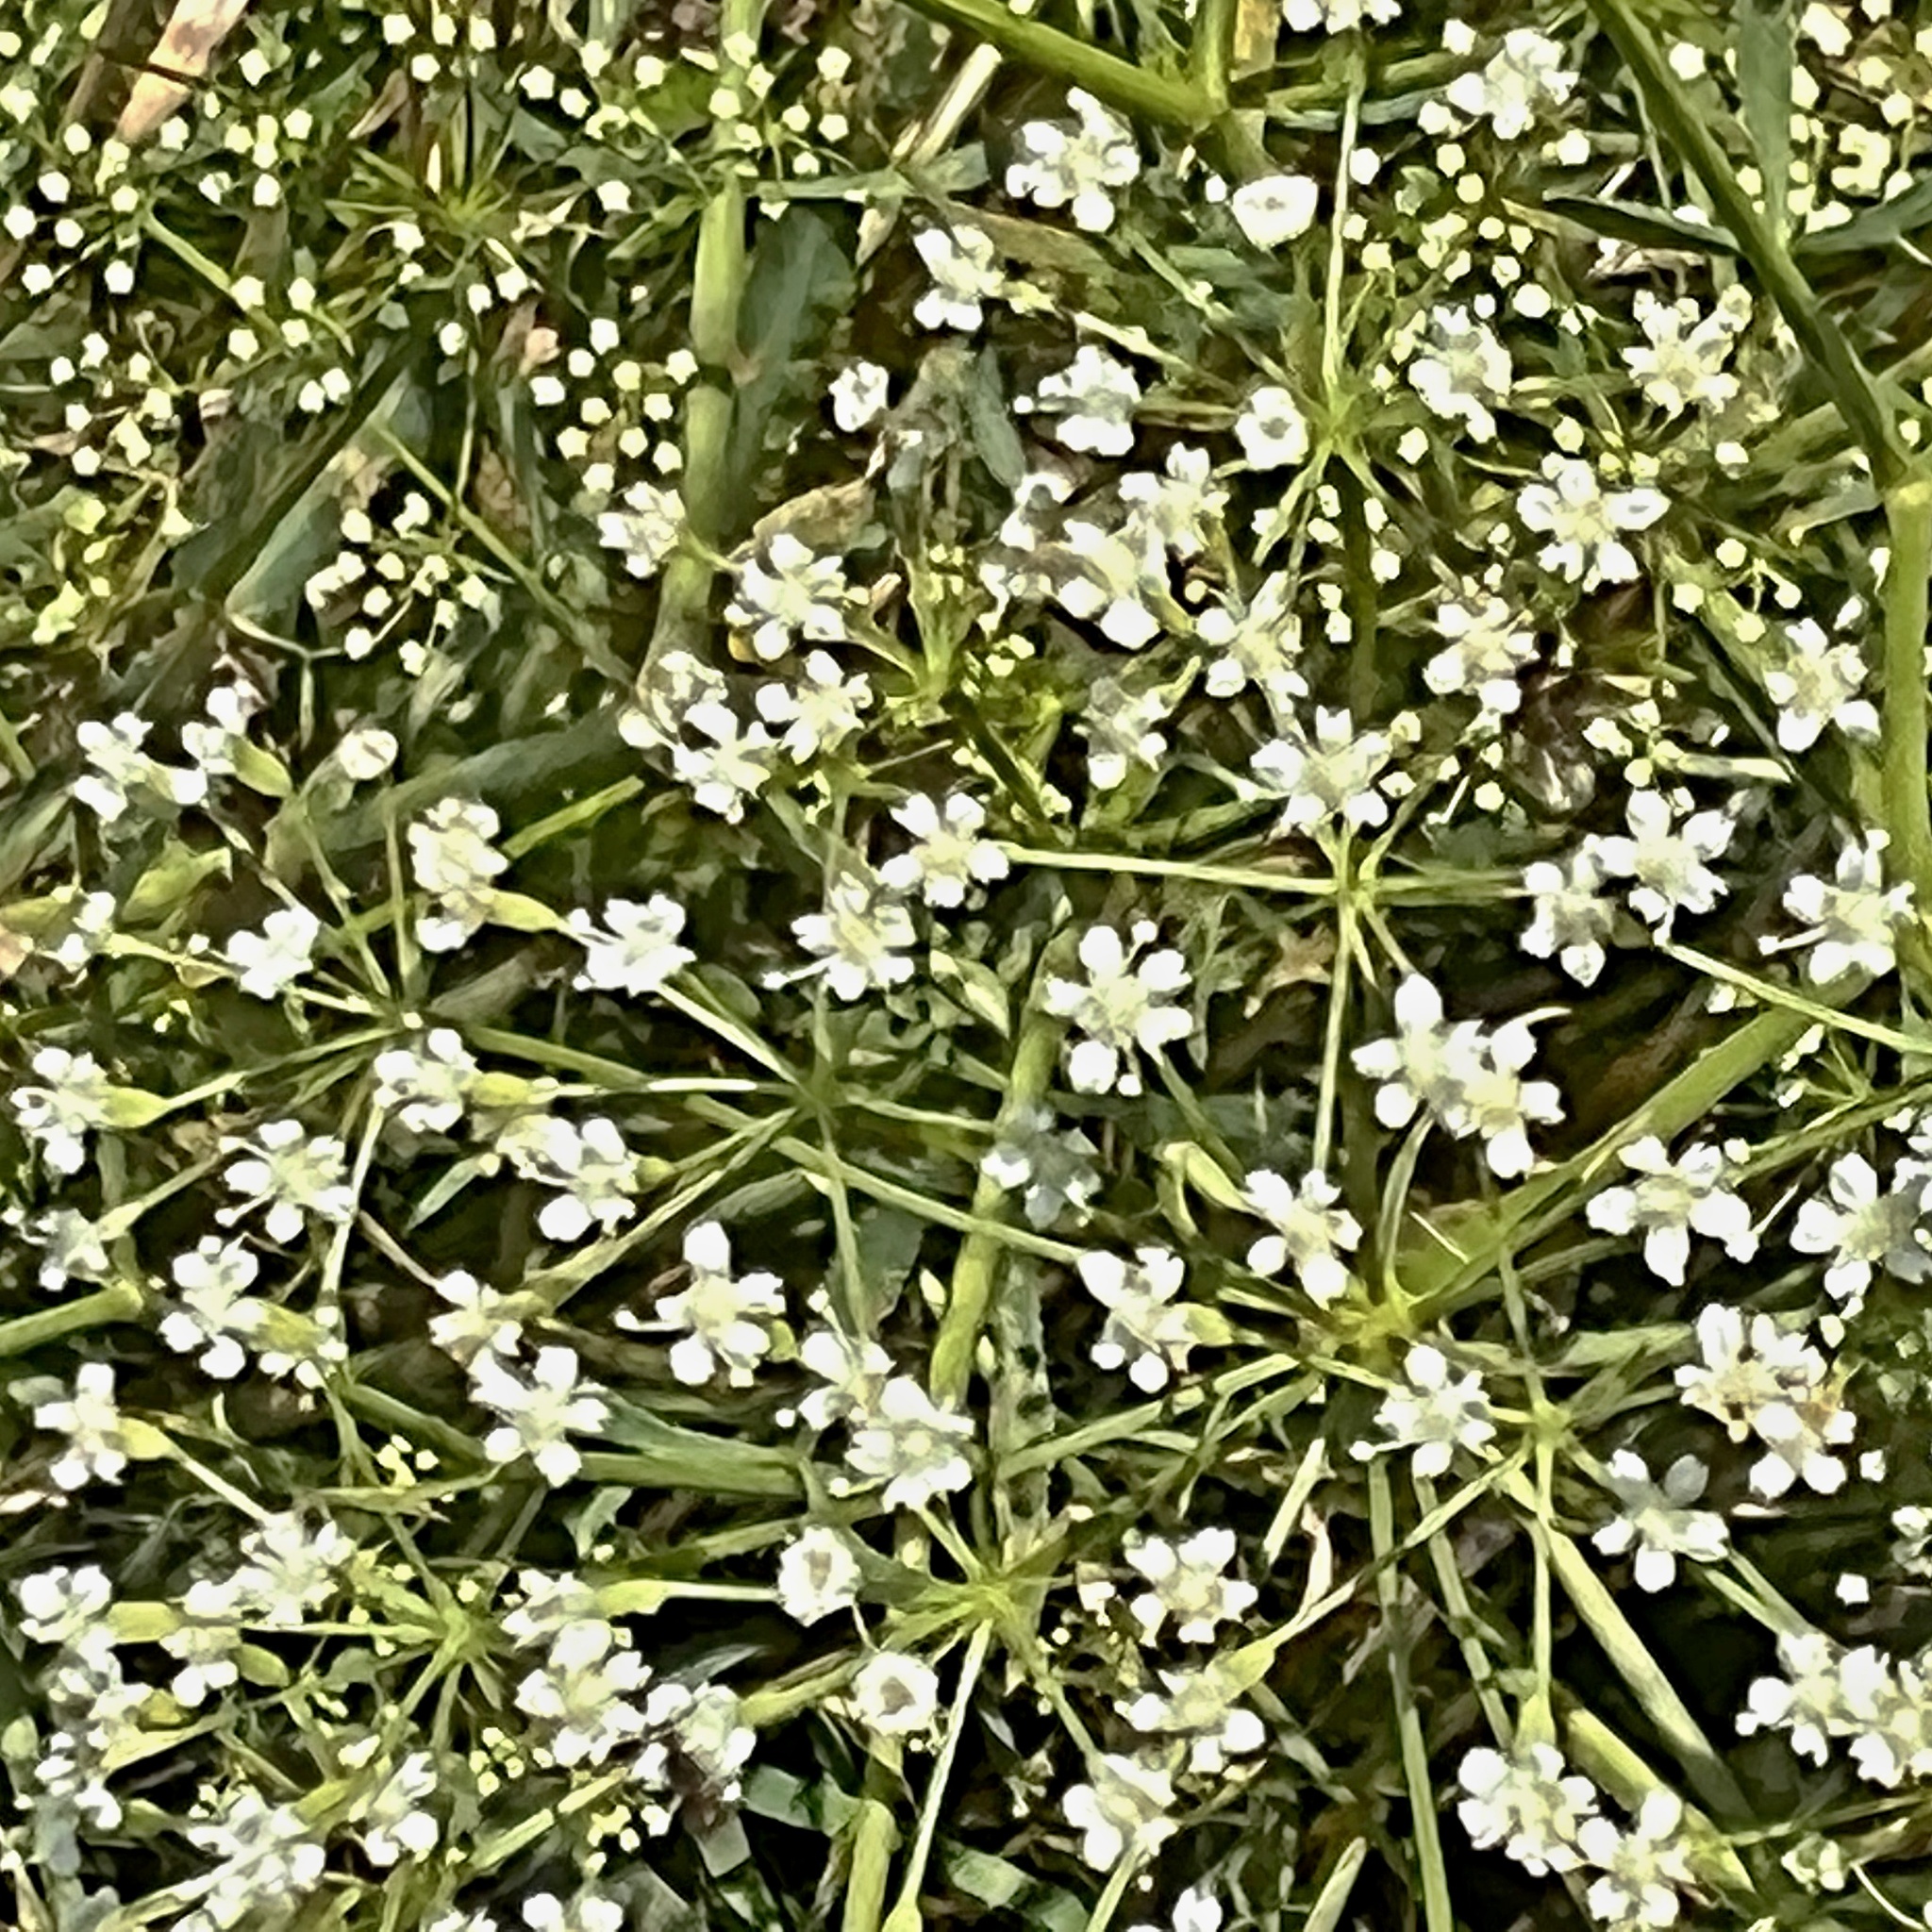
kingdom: Plantae
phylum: Tracheophyta
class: Magnoliopsida
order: Apiales
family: Apiaceae
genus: Falcaria
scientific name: Falcaria vulgaris
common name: Longleaf
